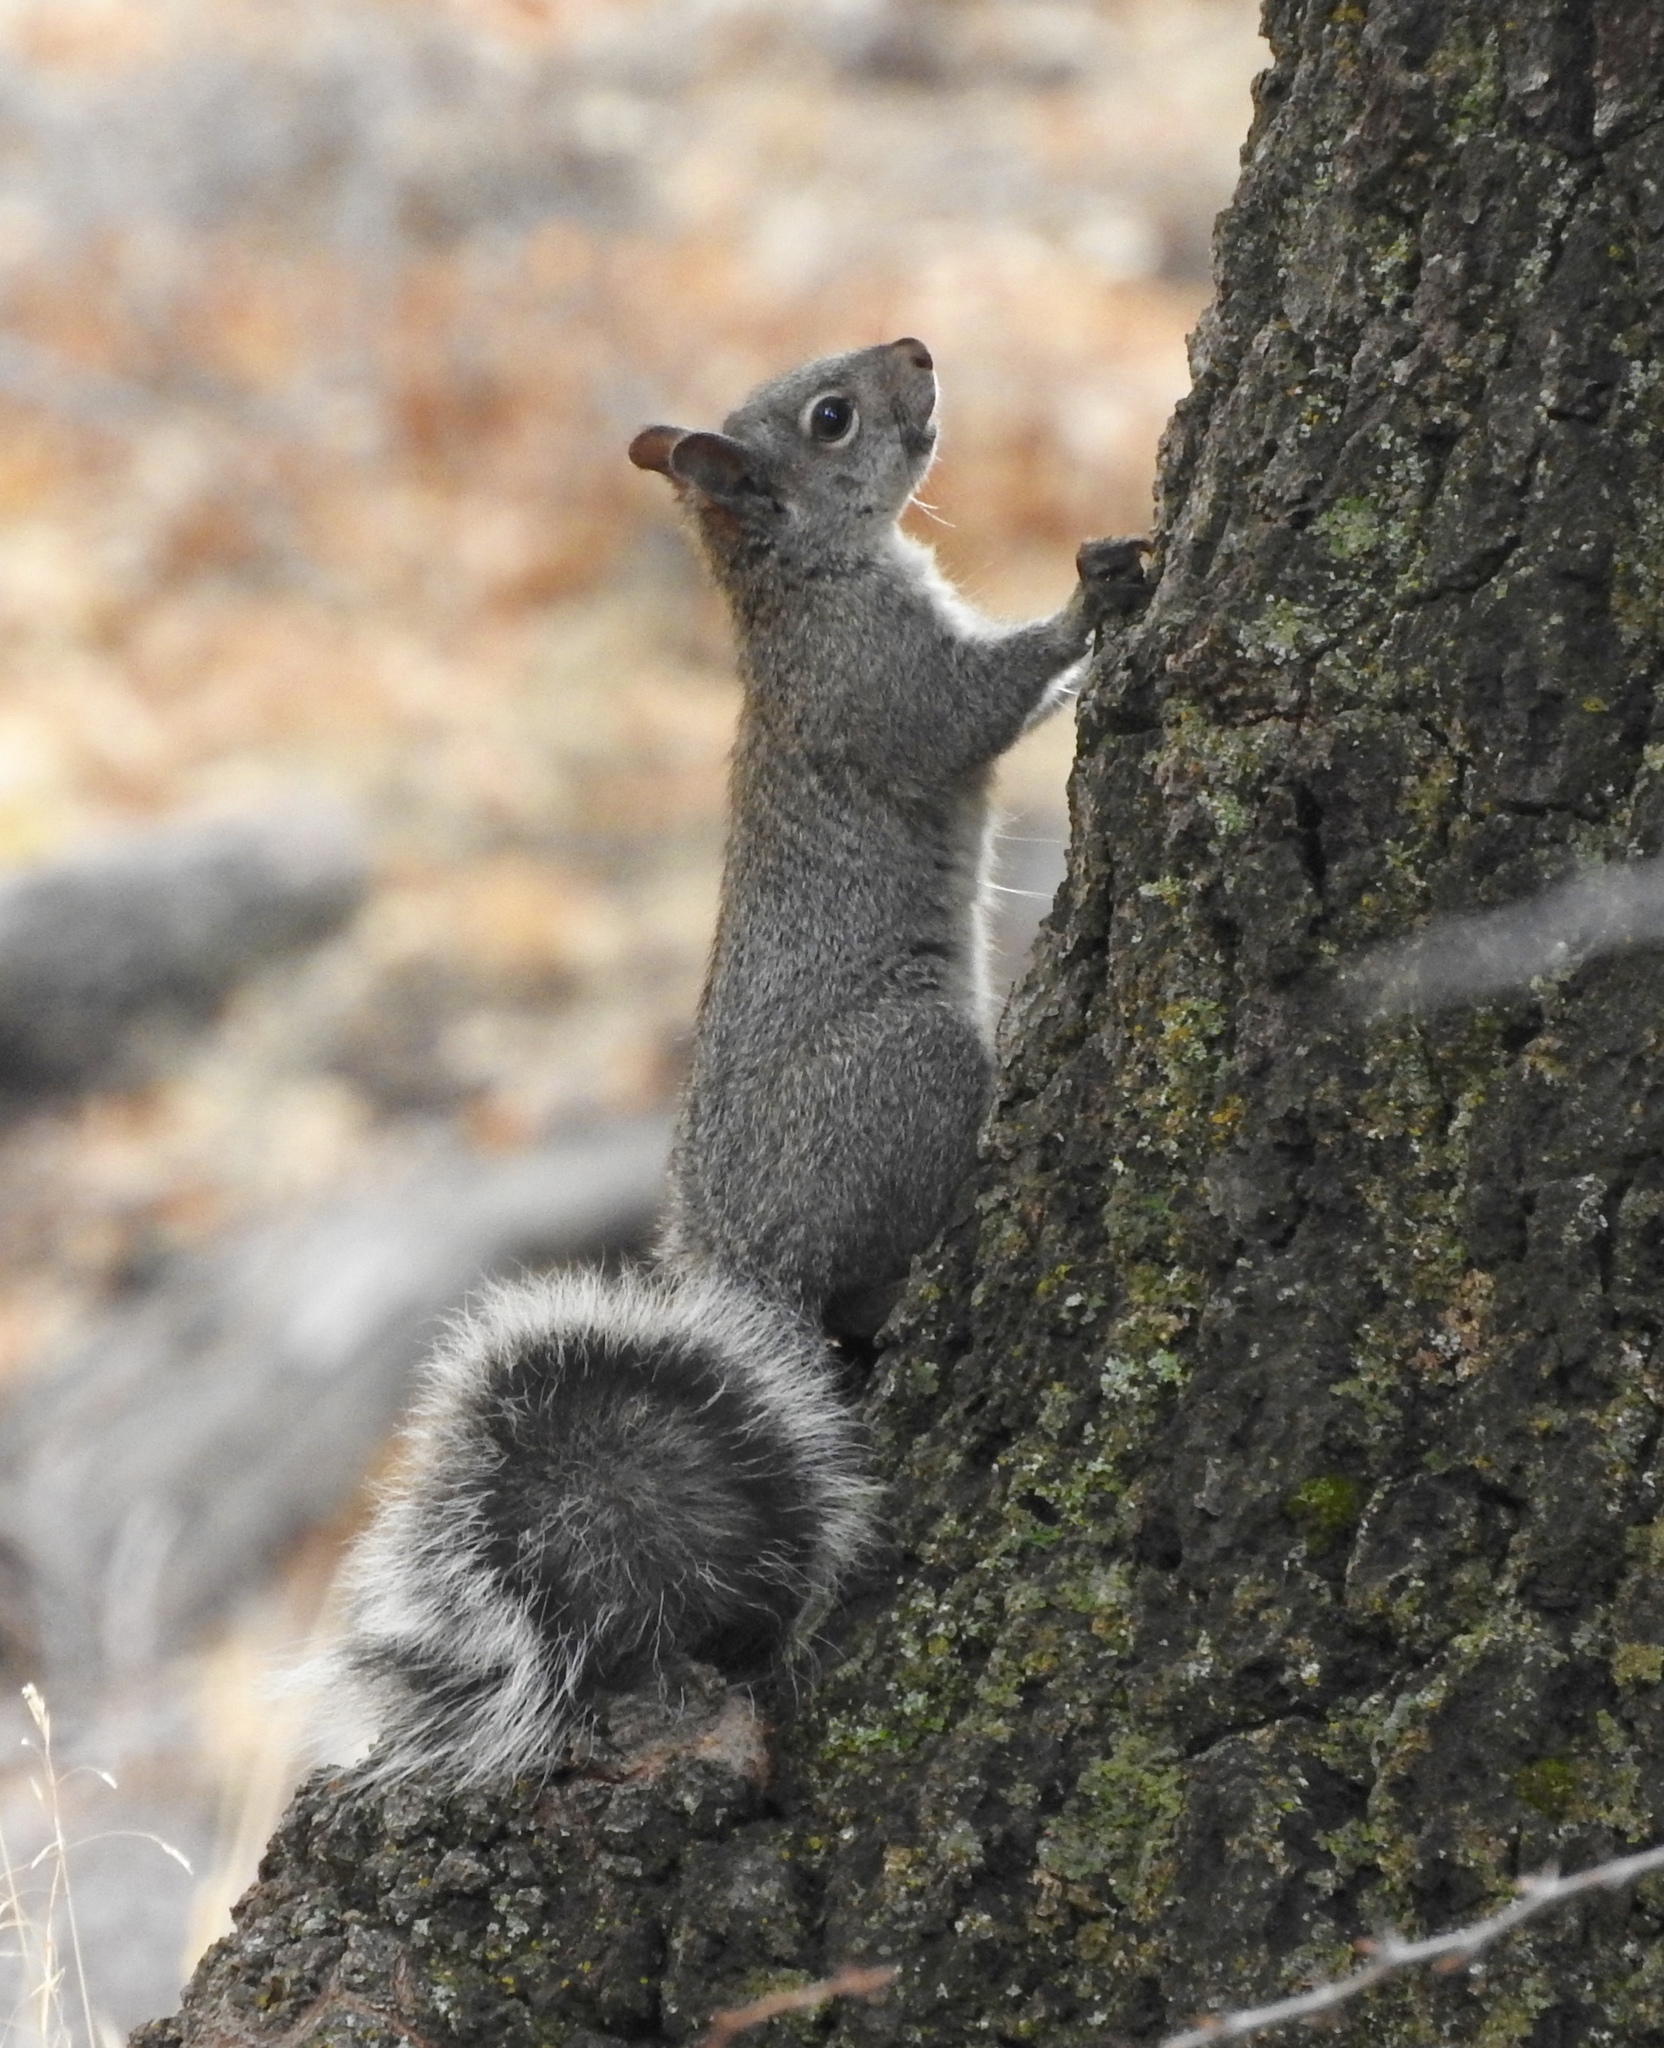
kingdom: Animalia
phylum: Chordata
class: Mammalia
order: Rodentia
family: Sciuridae
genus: Sciurus
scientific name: Sciurus griseus
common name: Western gray squirrel
